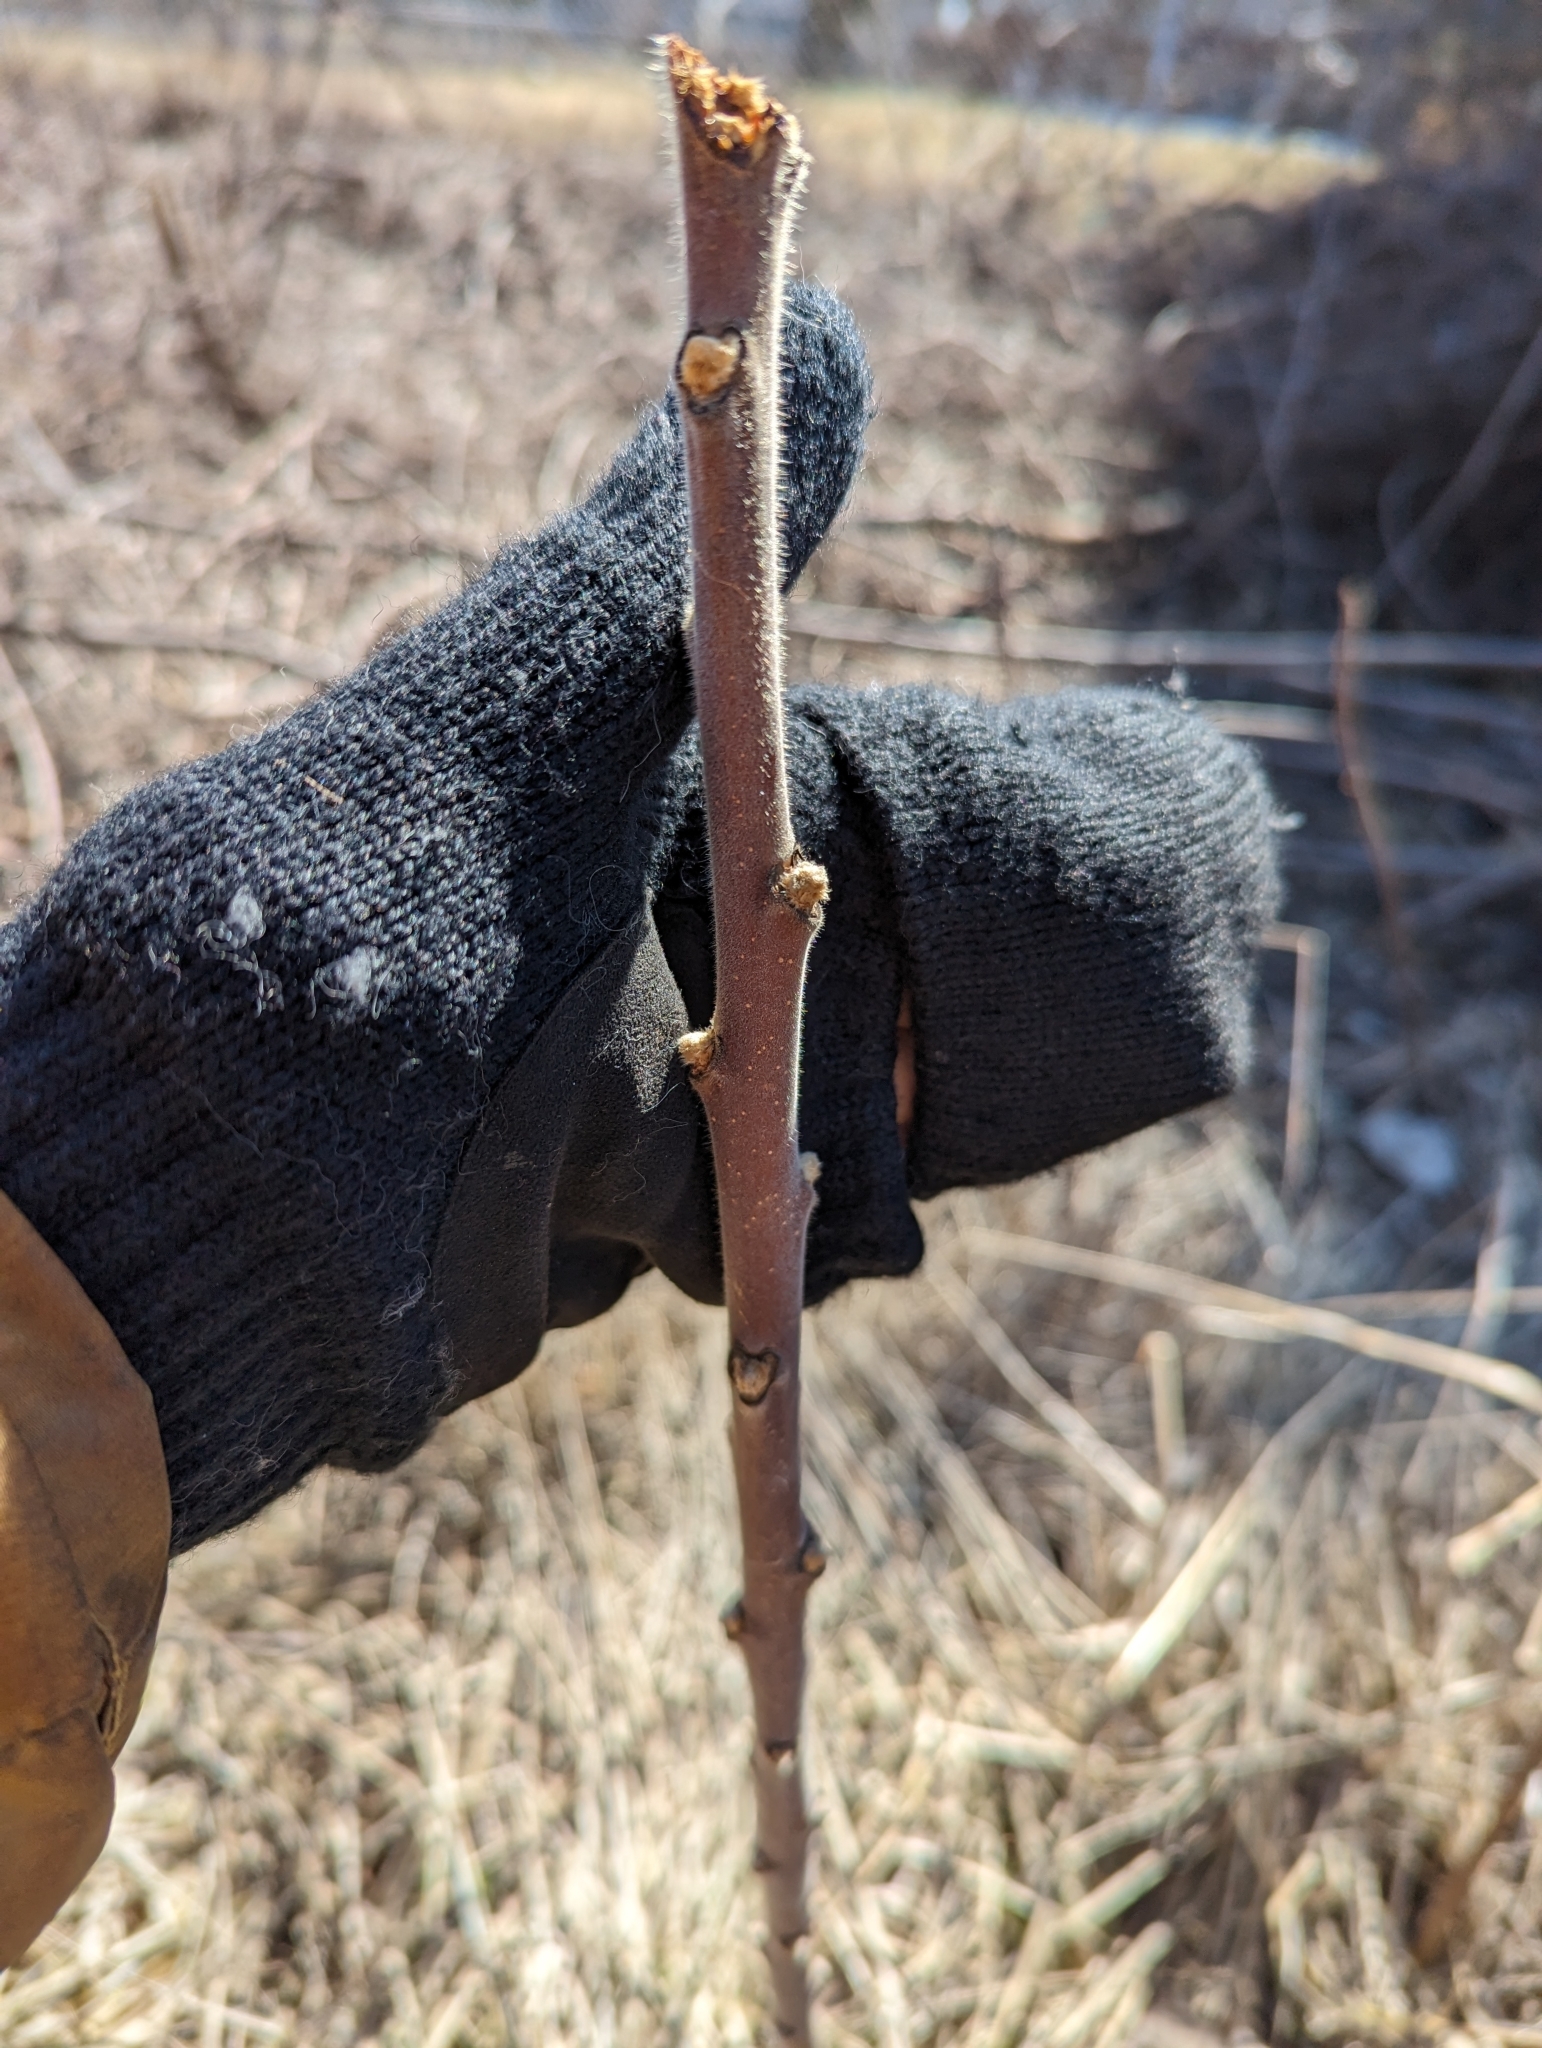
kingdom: Plantae
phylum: Tracheophyta
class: Magnoliopsida
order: Sapindales
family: Anacardiaceae
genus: Rhus
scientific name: Rhus typhina
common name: Staghorn sumac
